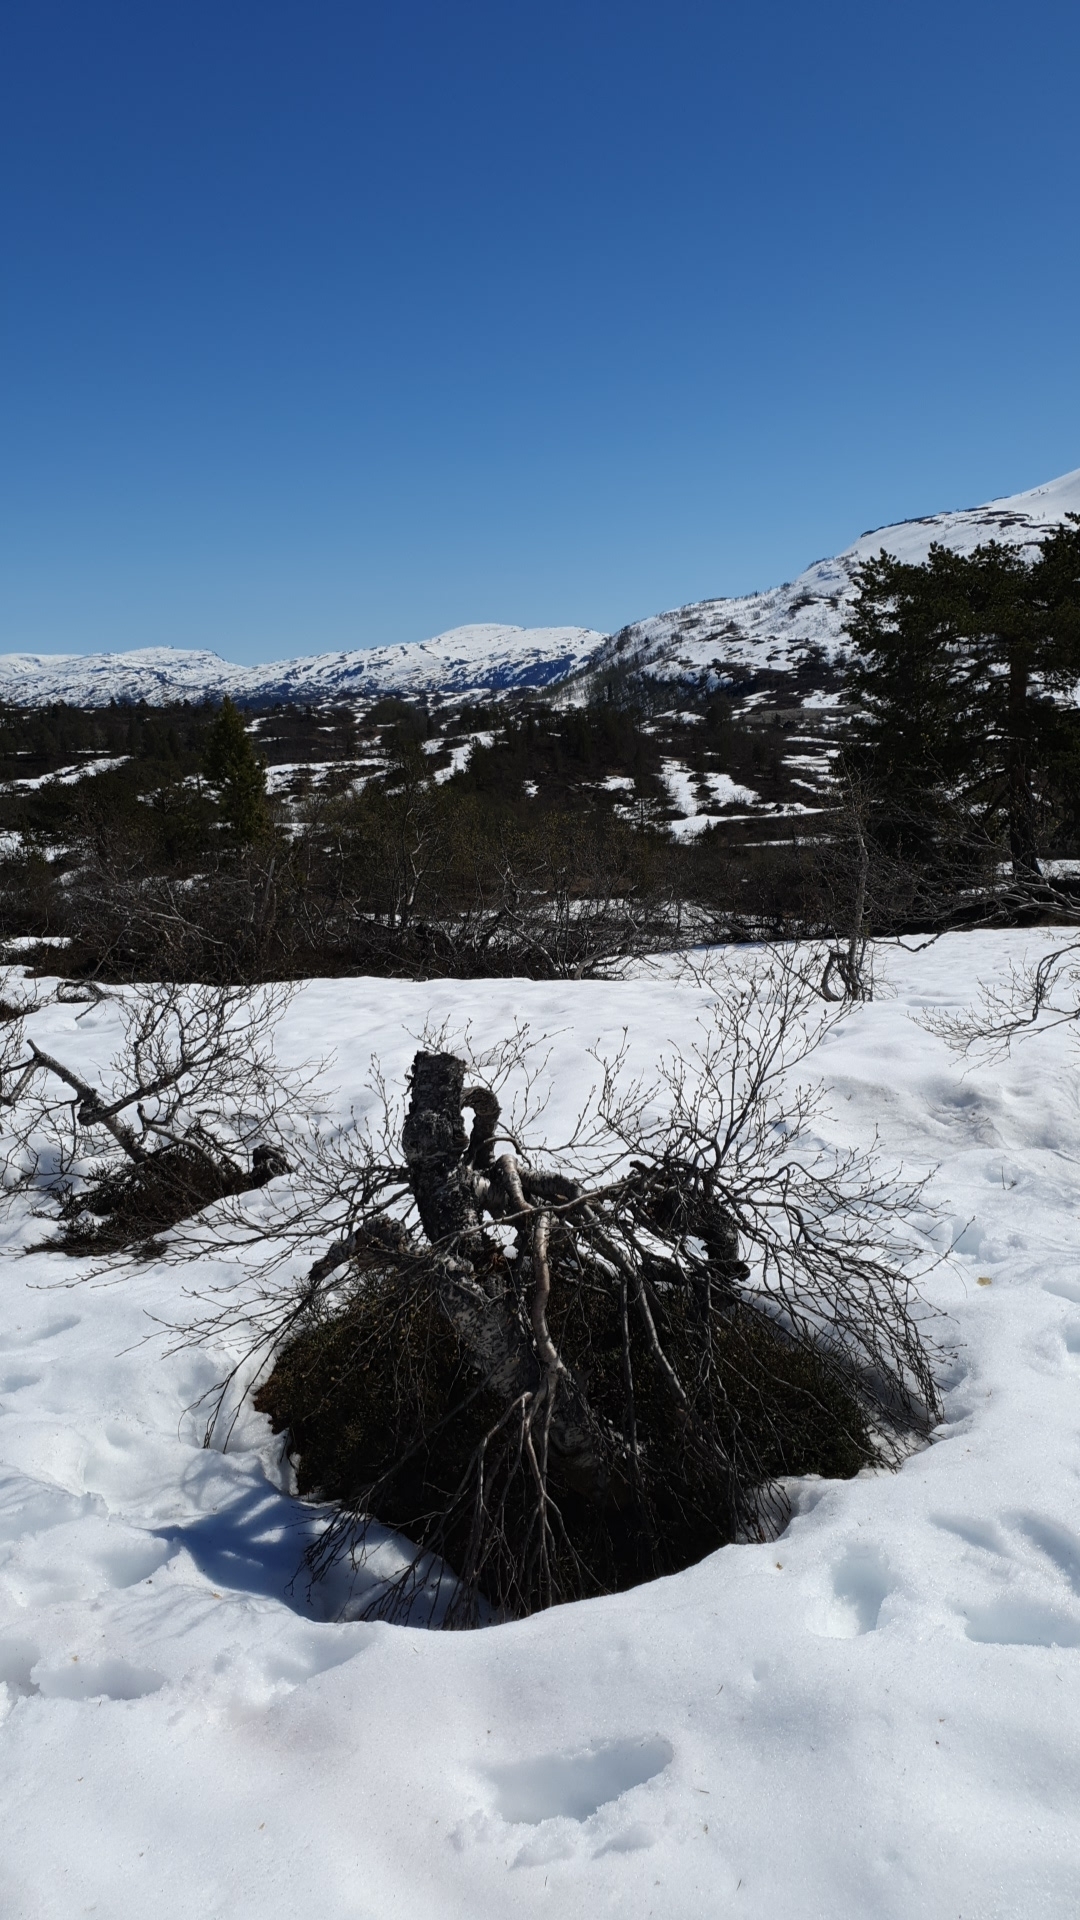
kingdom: Plantae
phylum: Tracheophyta
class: Magnoliopsida
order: Ericales
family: Ericaceae
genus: Empetrum
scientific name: Empetrum nigrum
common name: Black crowberry
